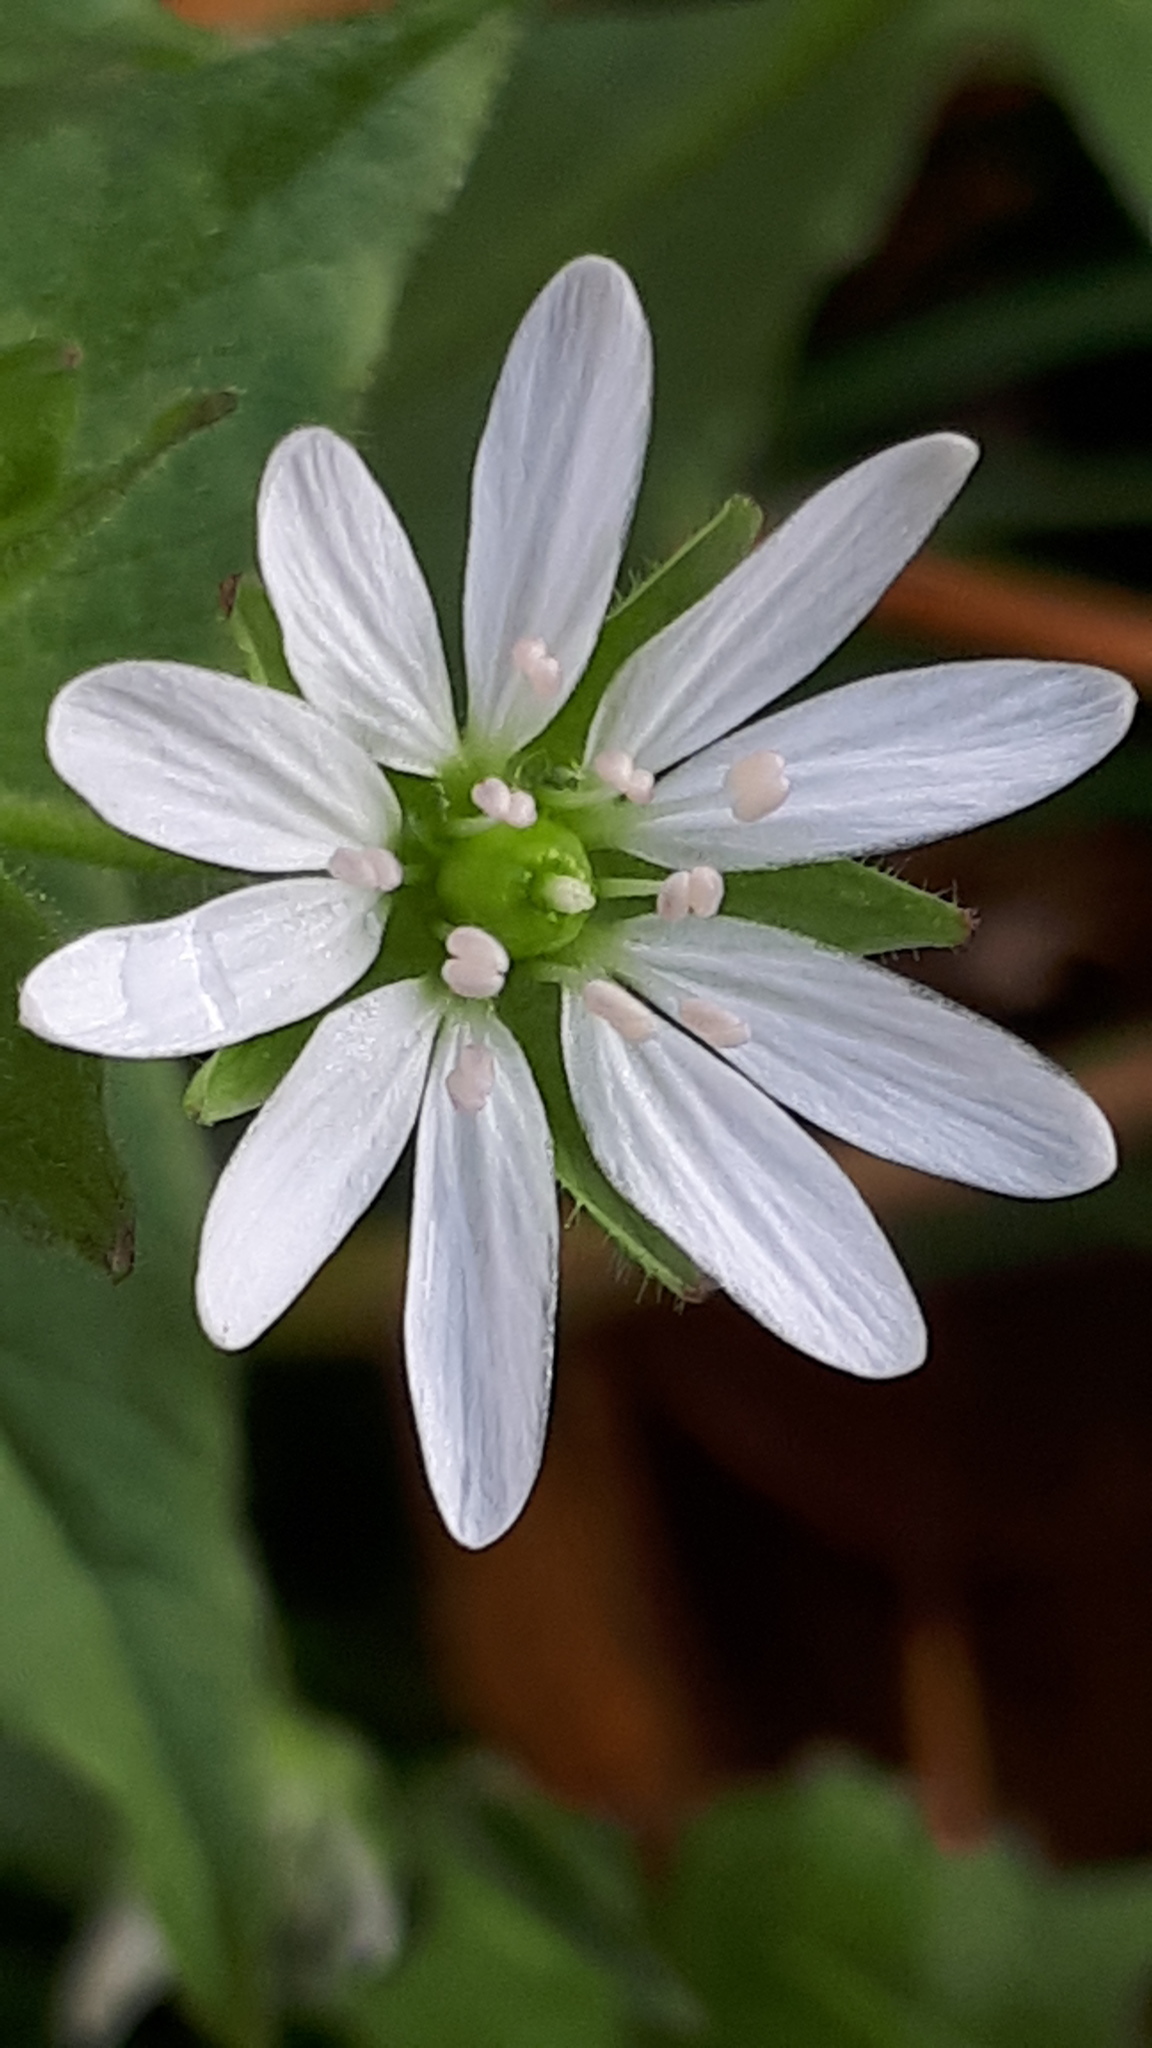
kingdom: Plantae
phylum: Tracheophyta
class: Magnoliopsida
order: Caryophyllales
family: Caryophyllaceae
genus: Stellaria
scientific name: Stellaria aquatica
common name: Water chickweed
